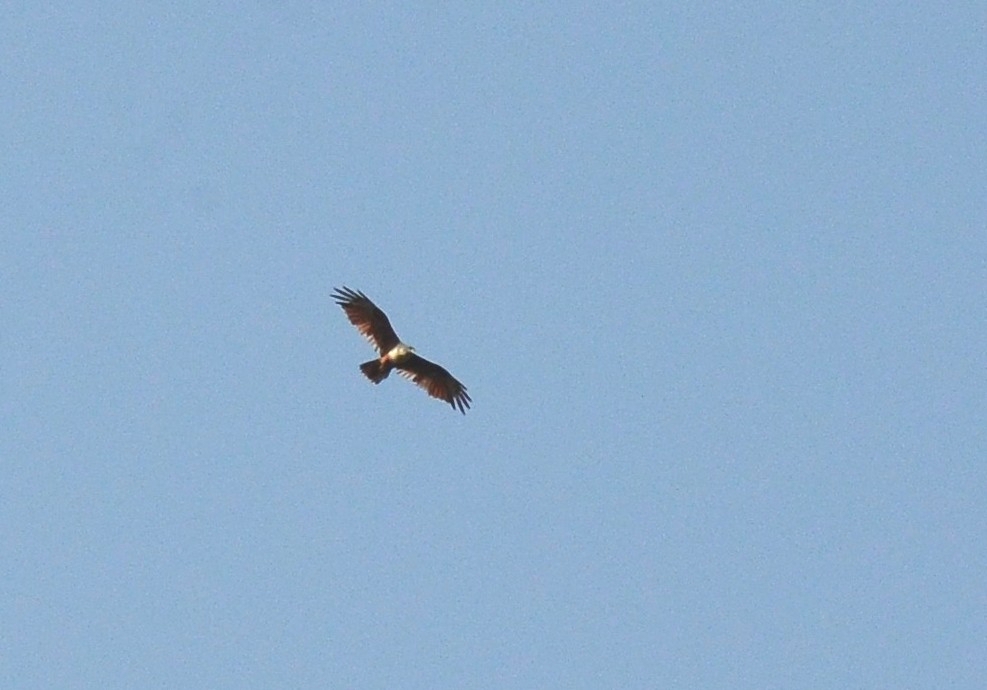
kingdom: Animalia
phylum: Chordata
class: Aves
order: Accipitriformes
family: Accipitridae
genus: Haliastur
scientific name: Haliastur indus
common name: Brahminy kite
